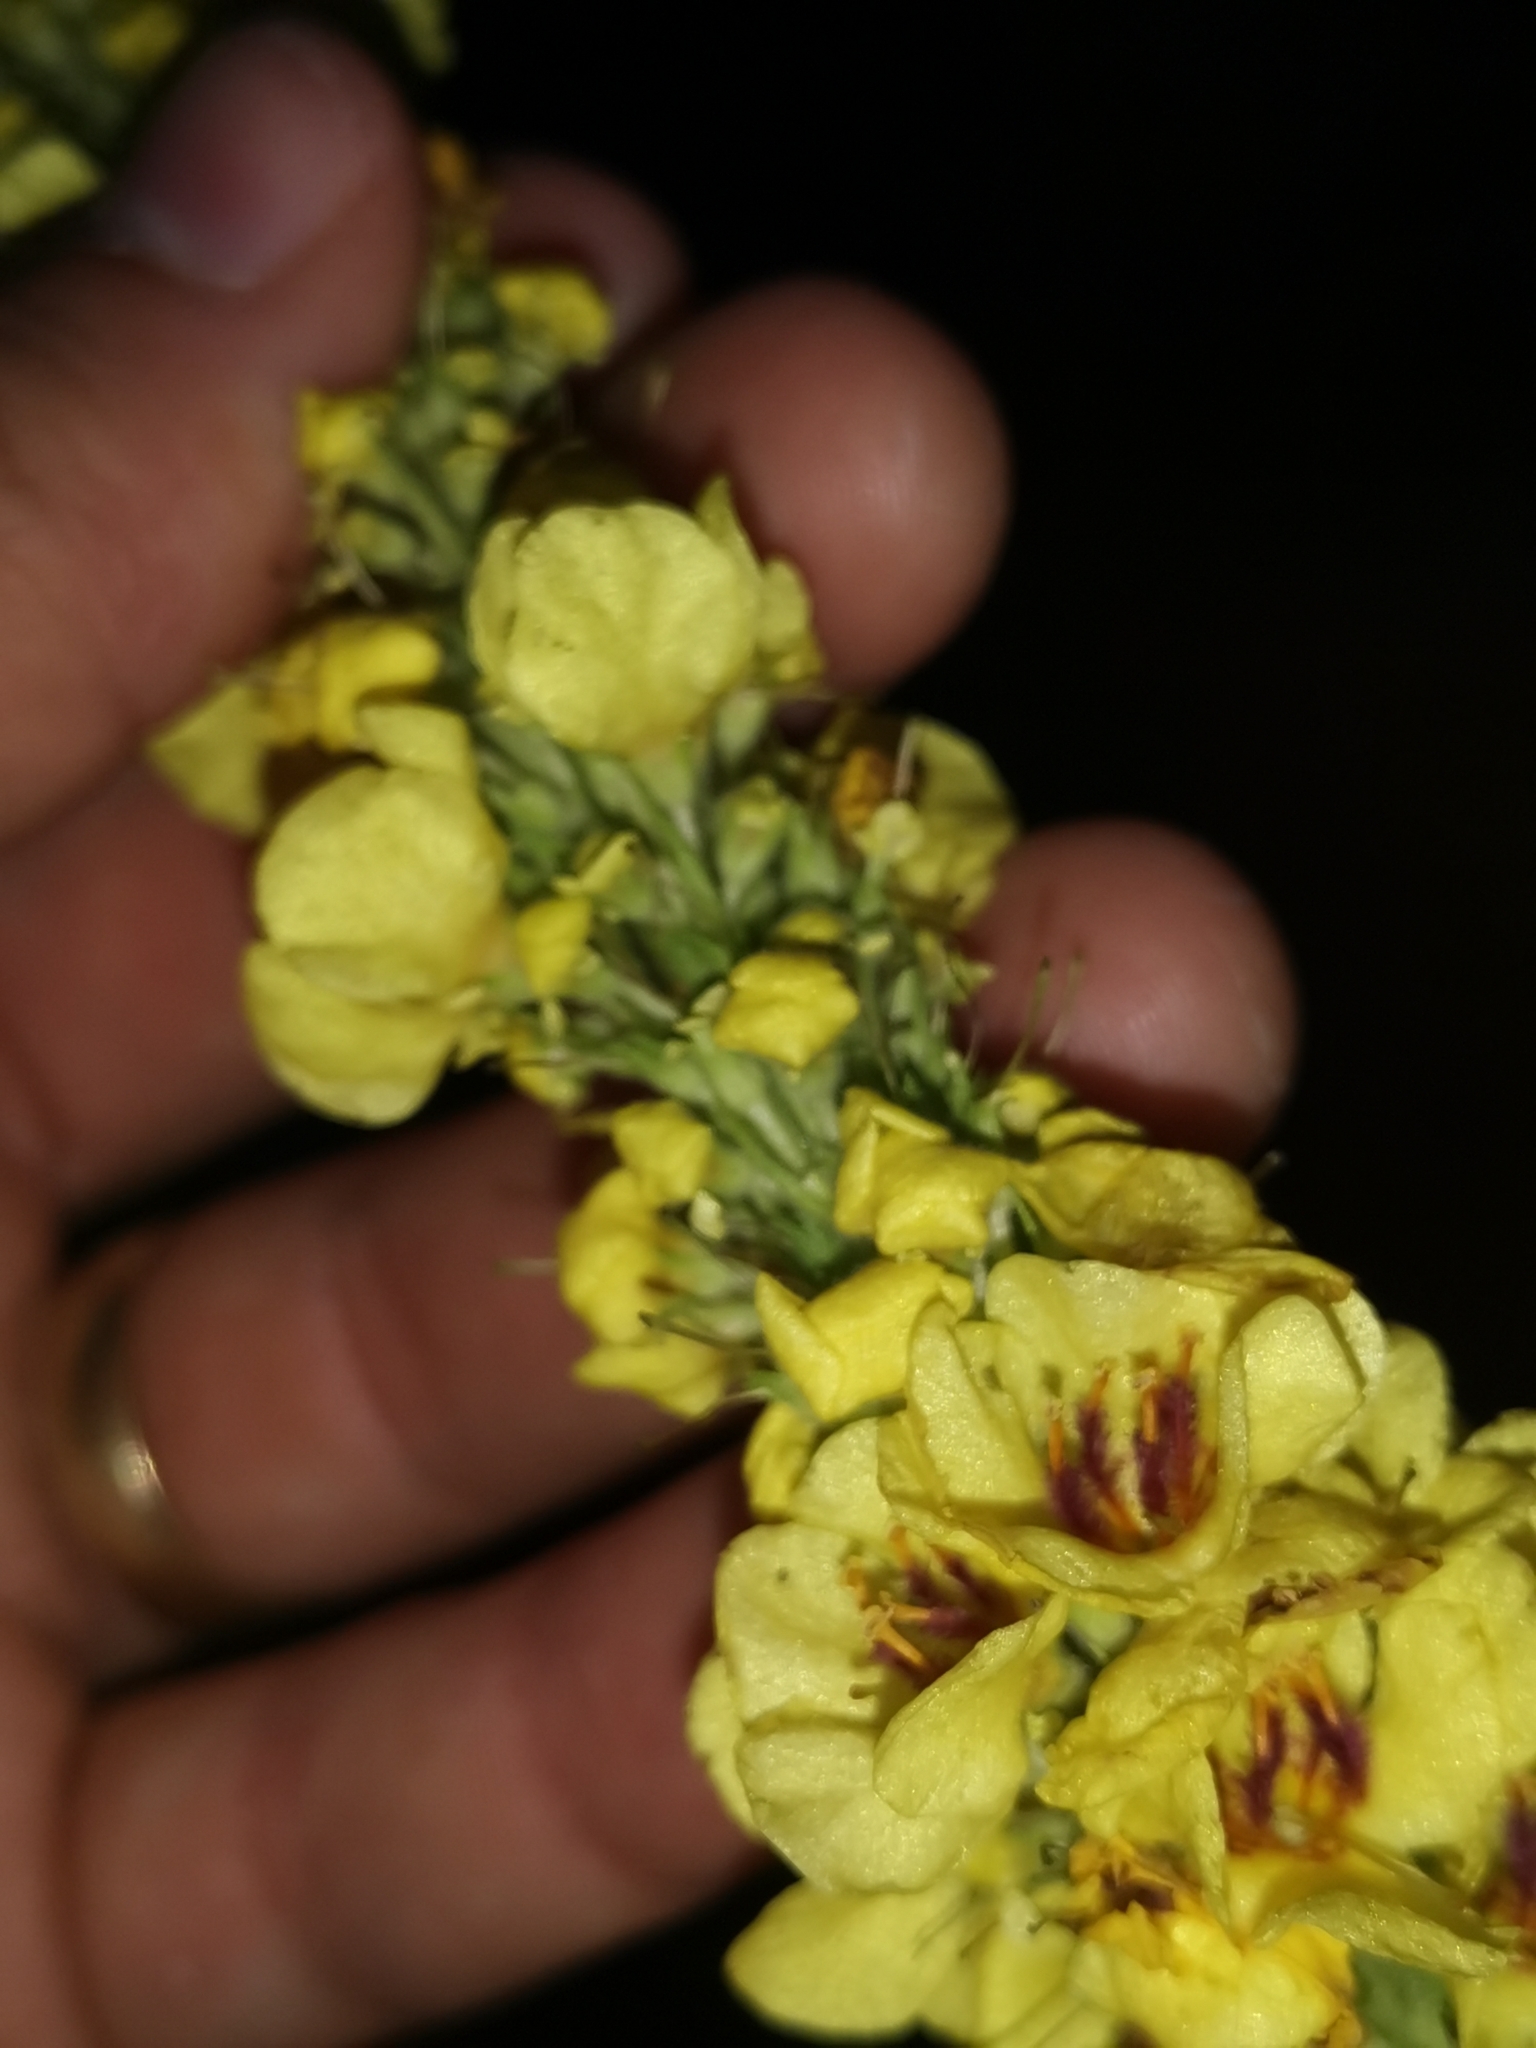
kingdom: Plantae
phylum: Tracheophyta
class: Magnoliopsida
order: Lamiales
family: Scrophulariaceae
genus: Verbascum
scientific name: Verbascum nigrum
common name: Dark mullein
